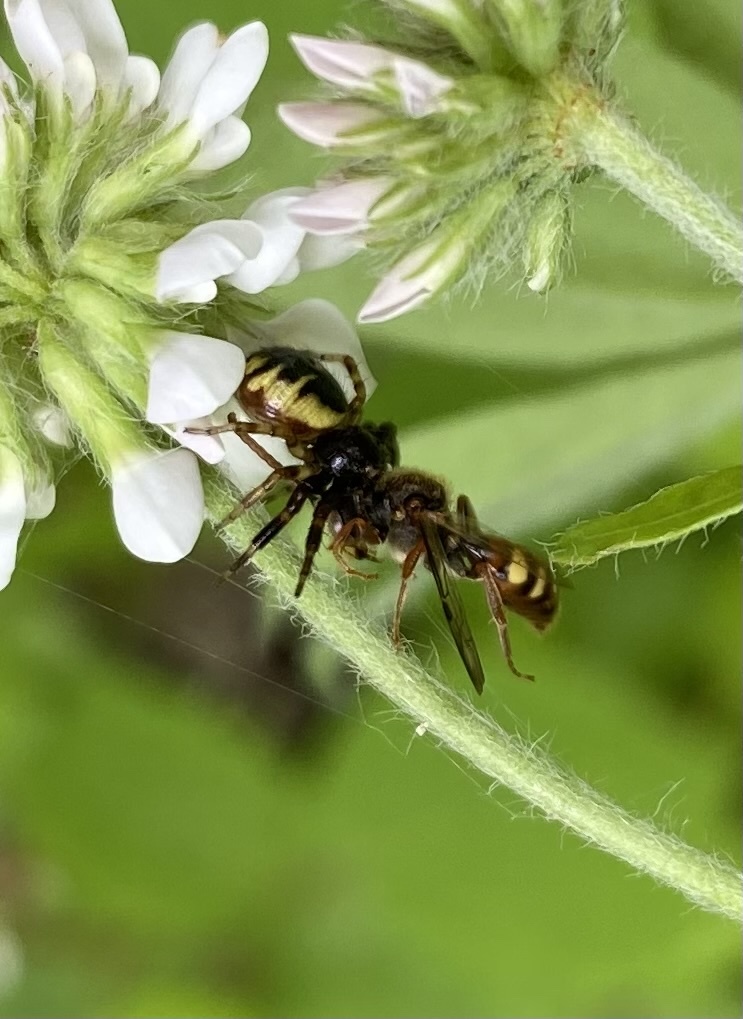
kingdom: Animalia
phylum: Arthropoda
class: Arachnida
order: Araneae
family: Thomisidae
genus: Synema
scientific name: Synema globosum
